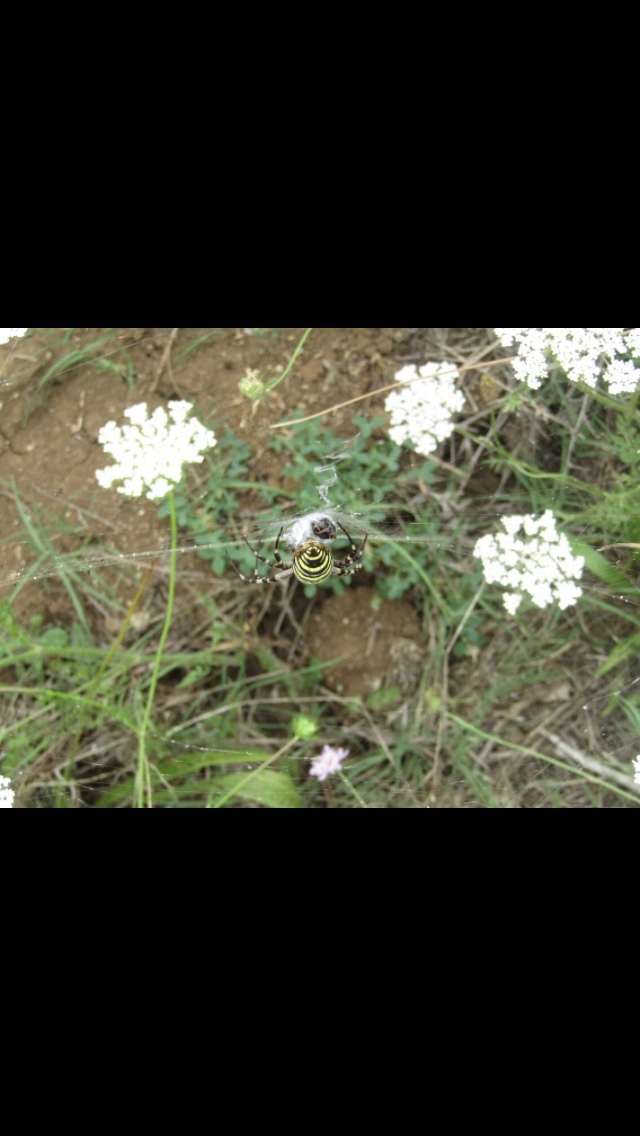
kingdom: Animalia
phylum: Arthropoda
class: Arachnida
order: Araneae
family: Araneidae
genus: Argiope
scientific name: Argiope bruennichi
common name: Wasp spider
